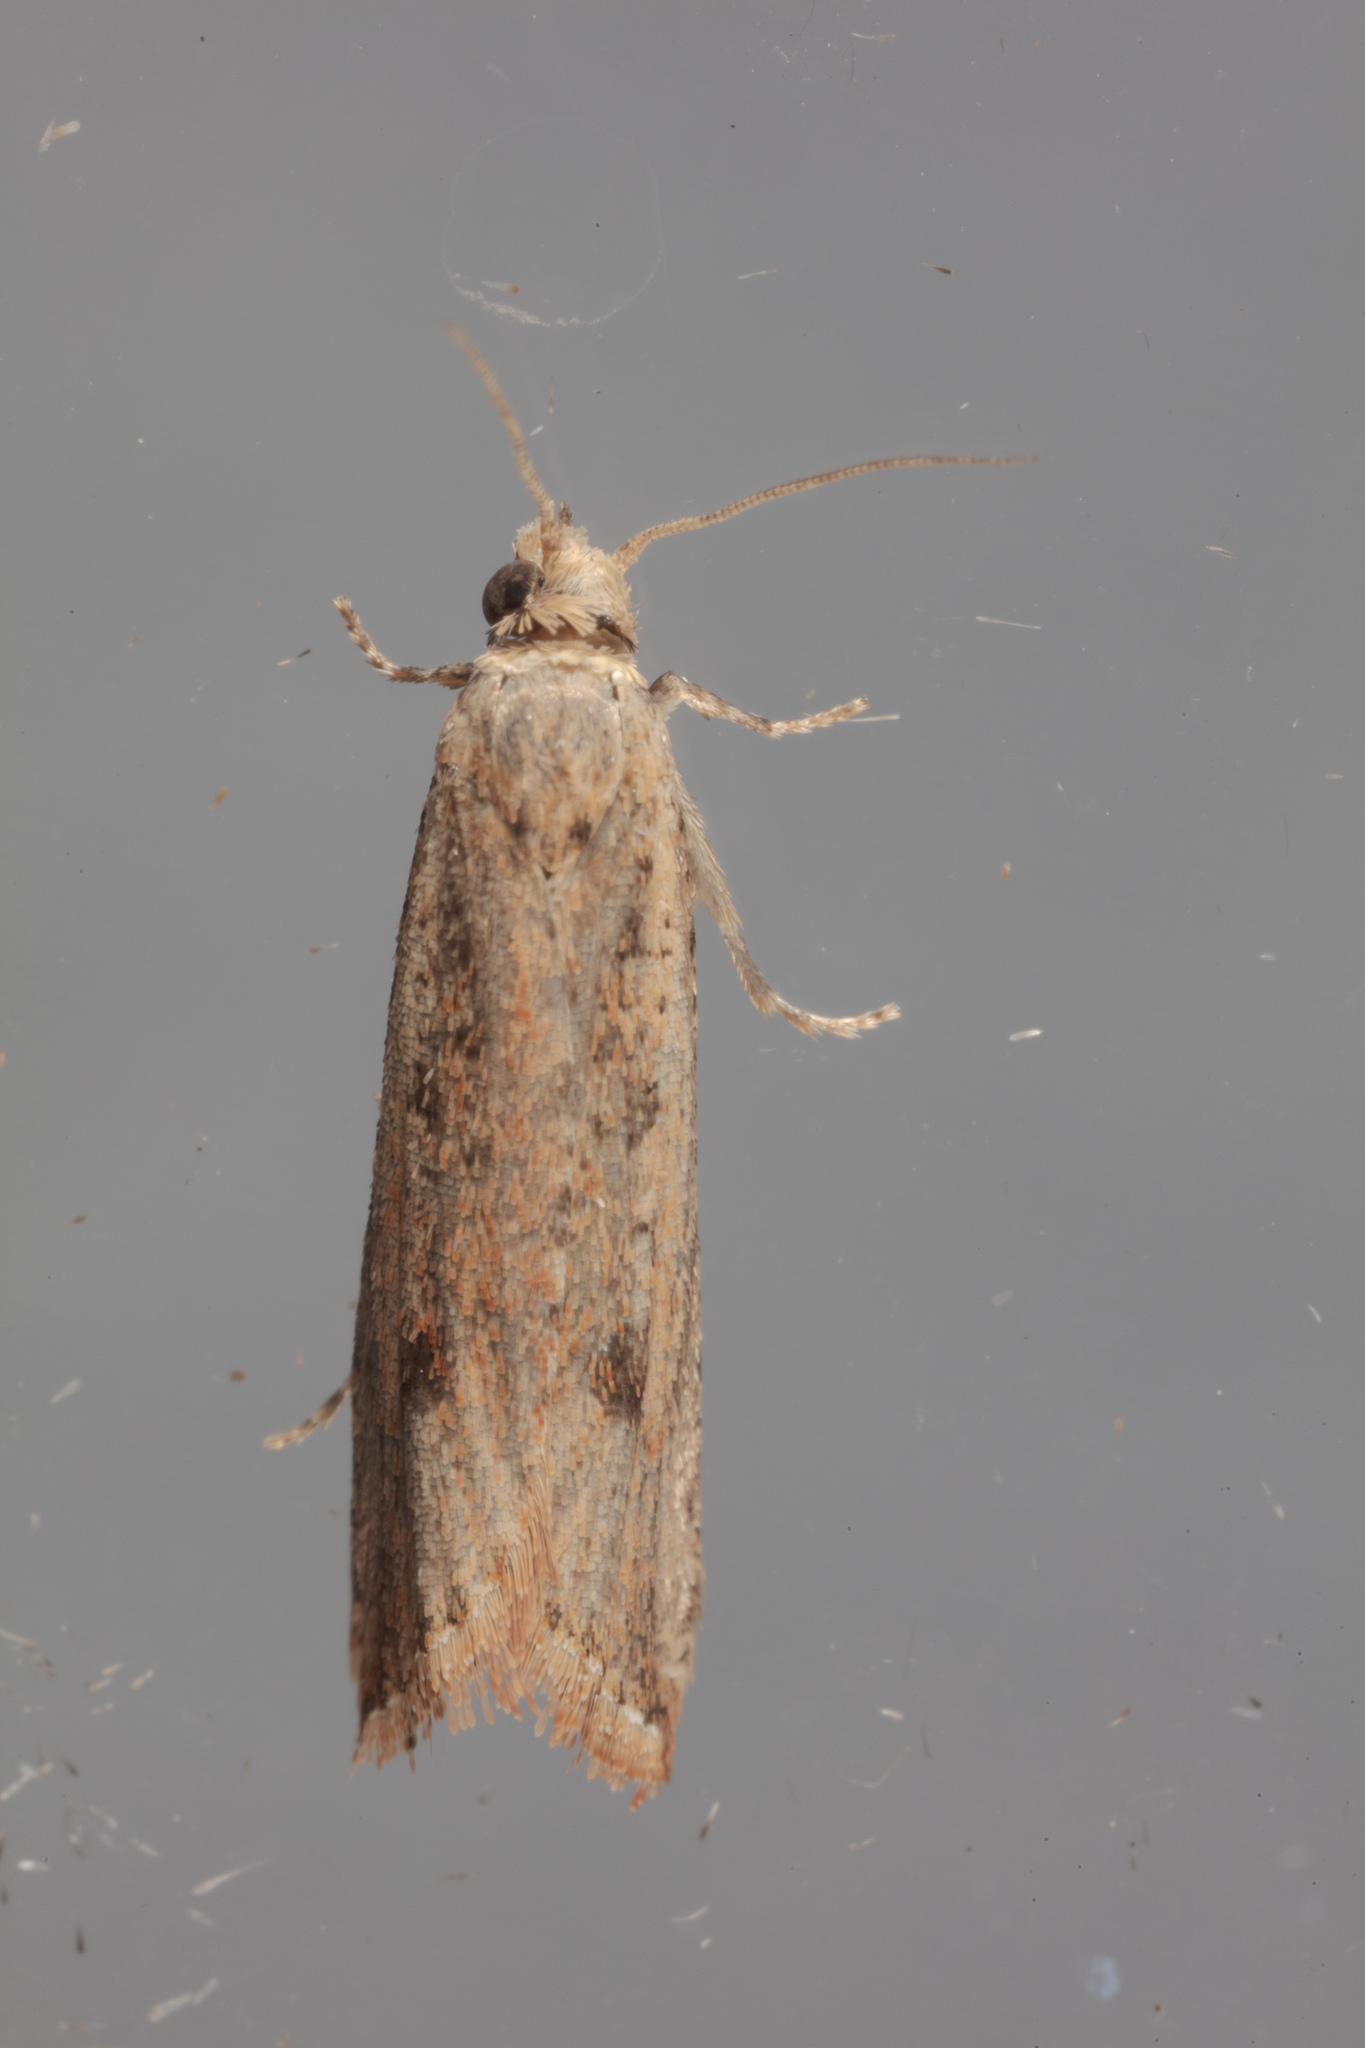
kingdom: Animalia
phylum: Arthropoda
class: Insecta
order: Lepidoptera
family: Tortricidae
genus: Bactra
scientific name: Bactra verutana
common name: Javelin moth
